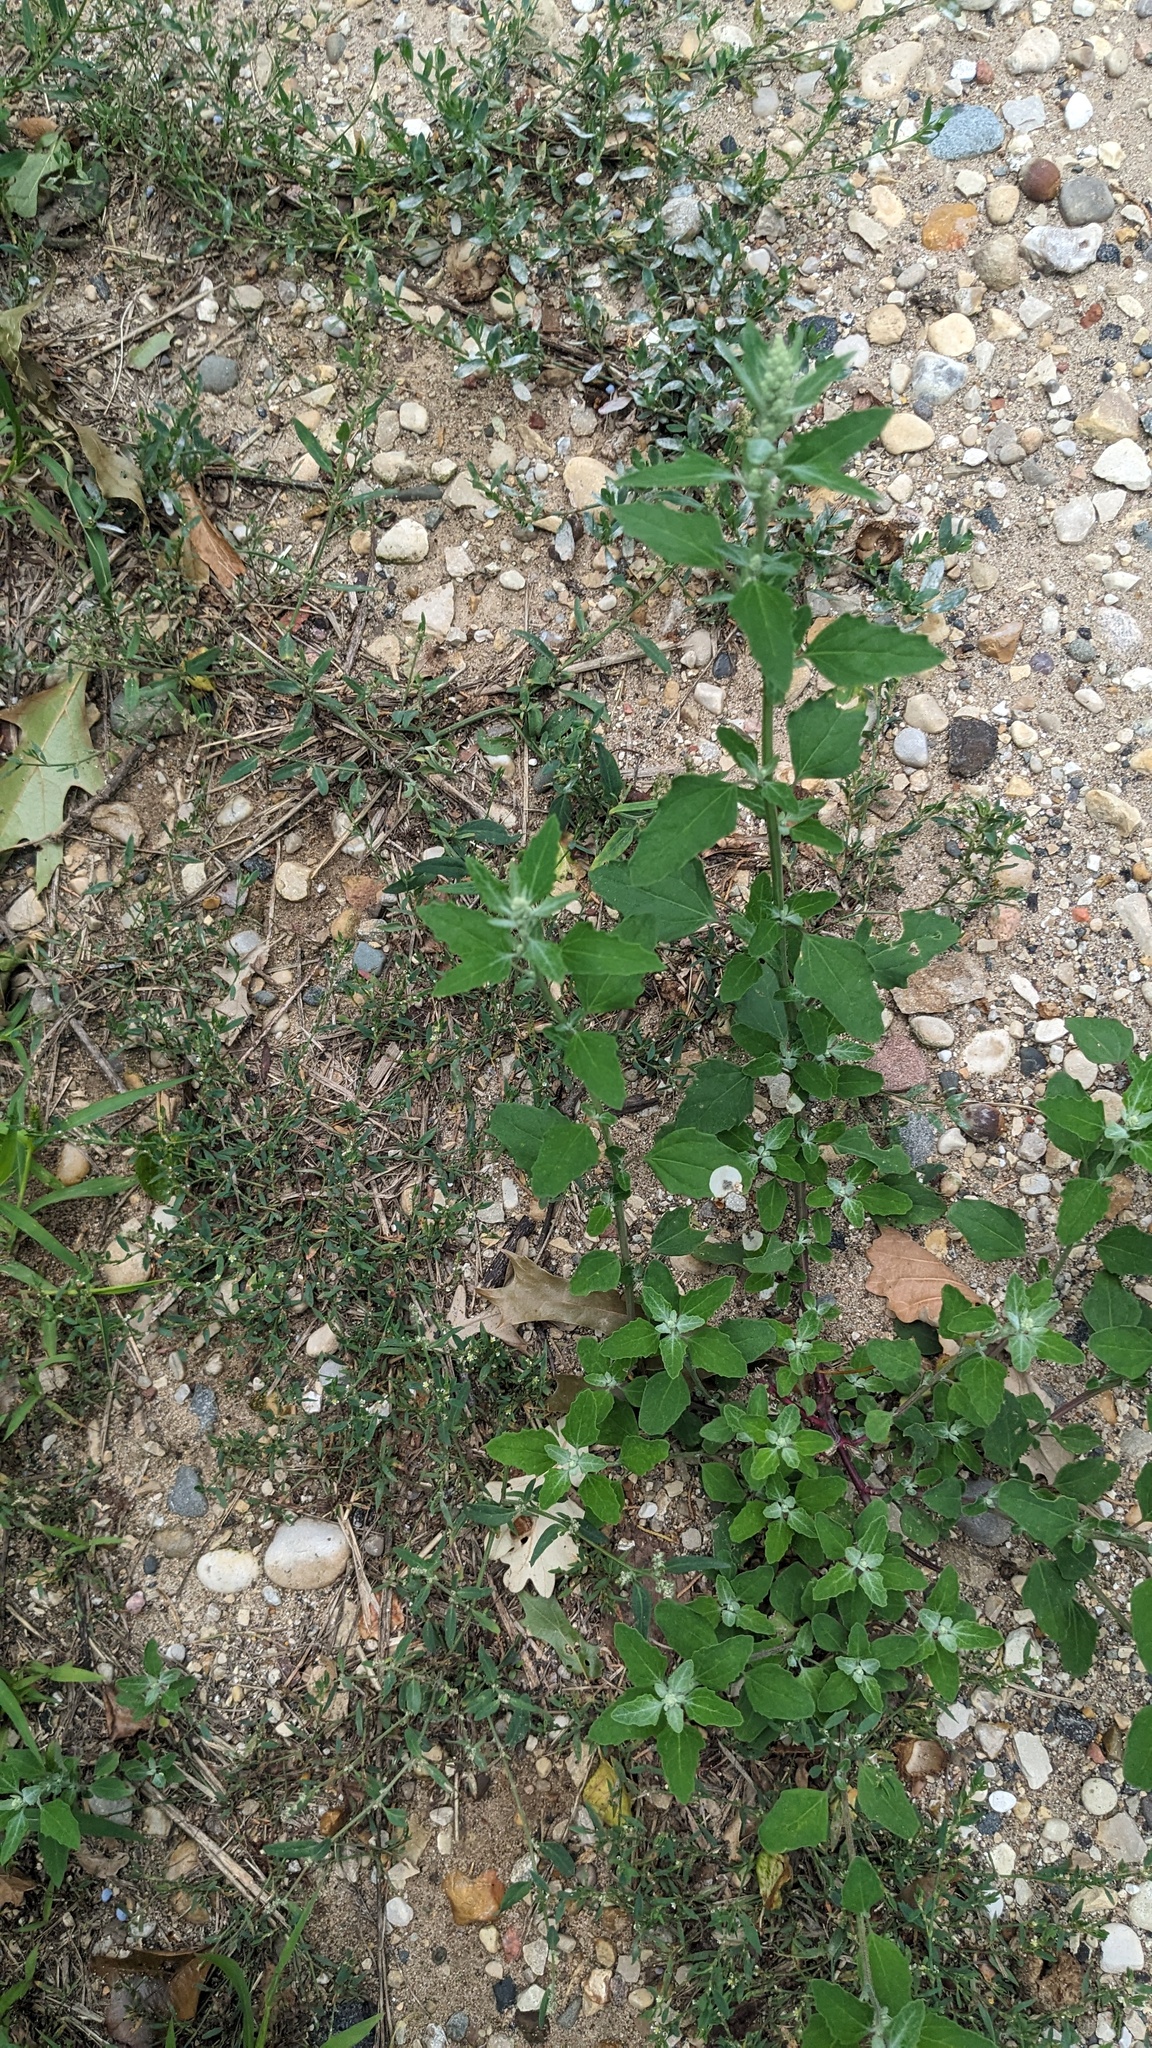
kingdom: Plantae
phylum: Tracheophyta
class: Magnoliopsida
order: Caryophyllales
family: Amaranthaceae
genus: Chenopodium
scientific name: Chenopodium album
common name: Fat-hen
